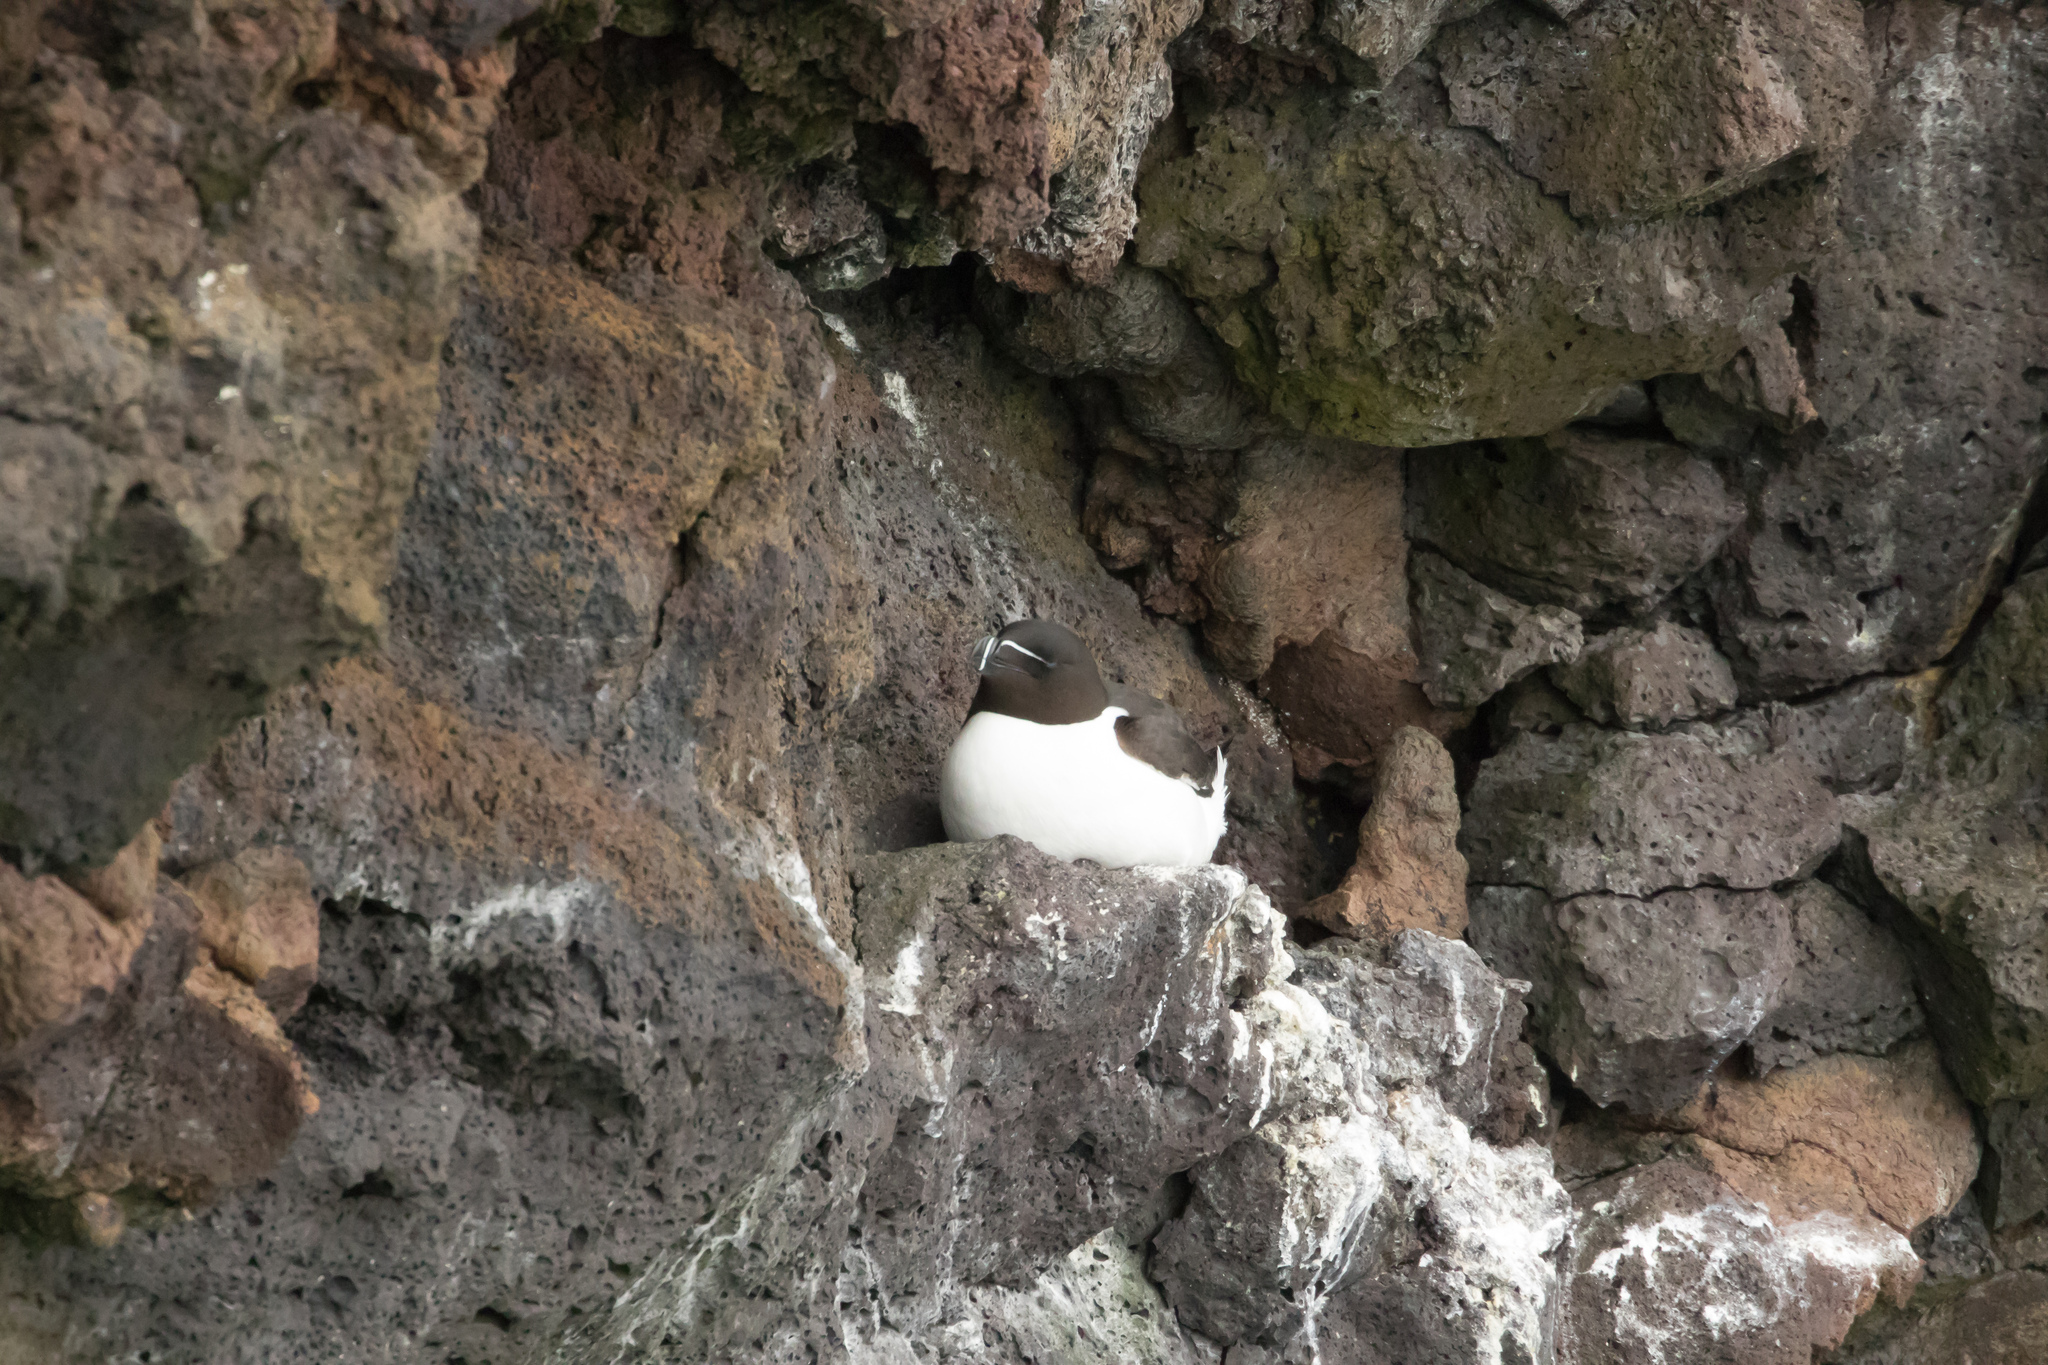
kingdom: Animalia
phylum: Chordata
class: Aves
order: Charadriiformes
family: Alcidae
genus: Alca
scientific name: Alca torda
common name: Razorbill
